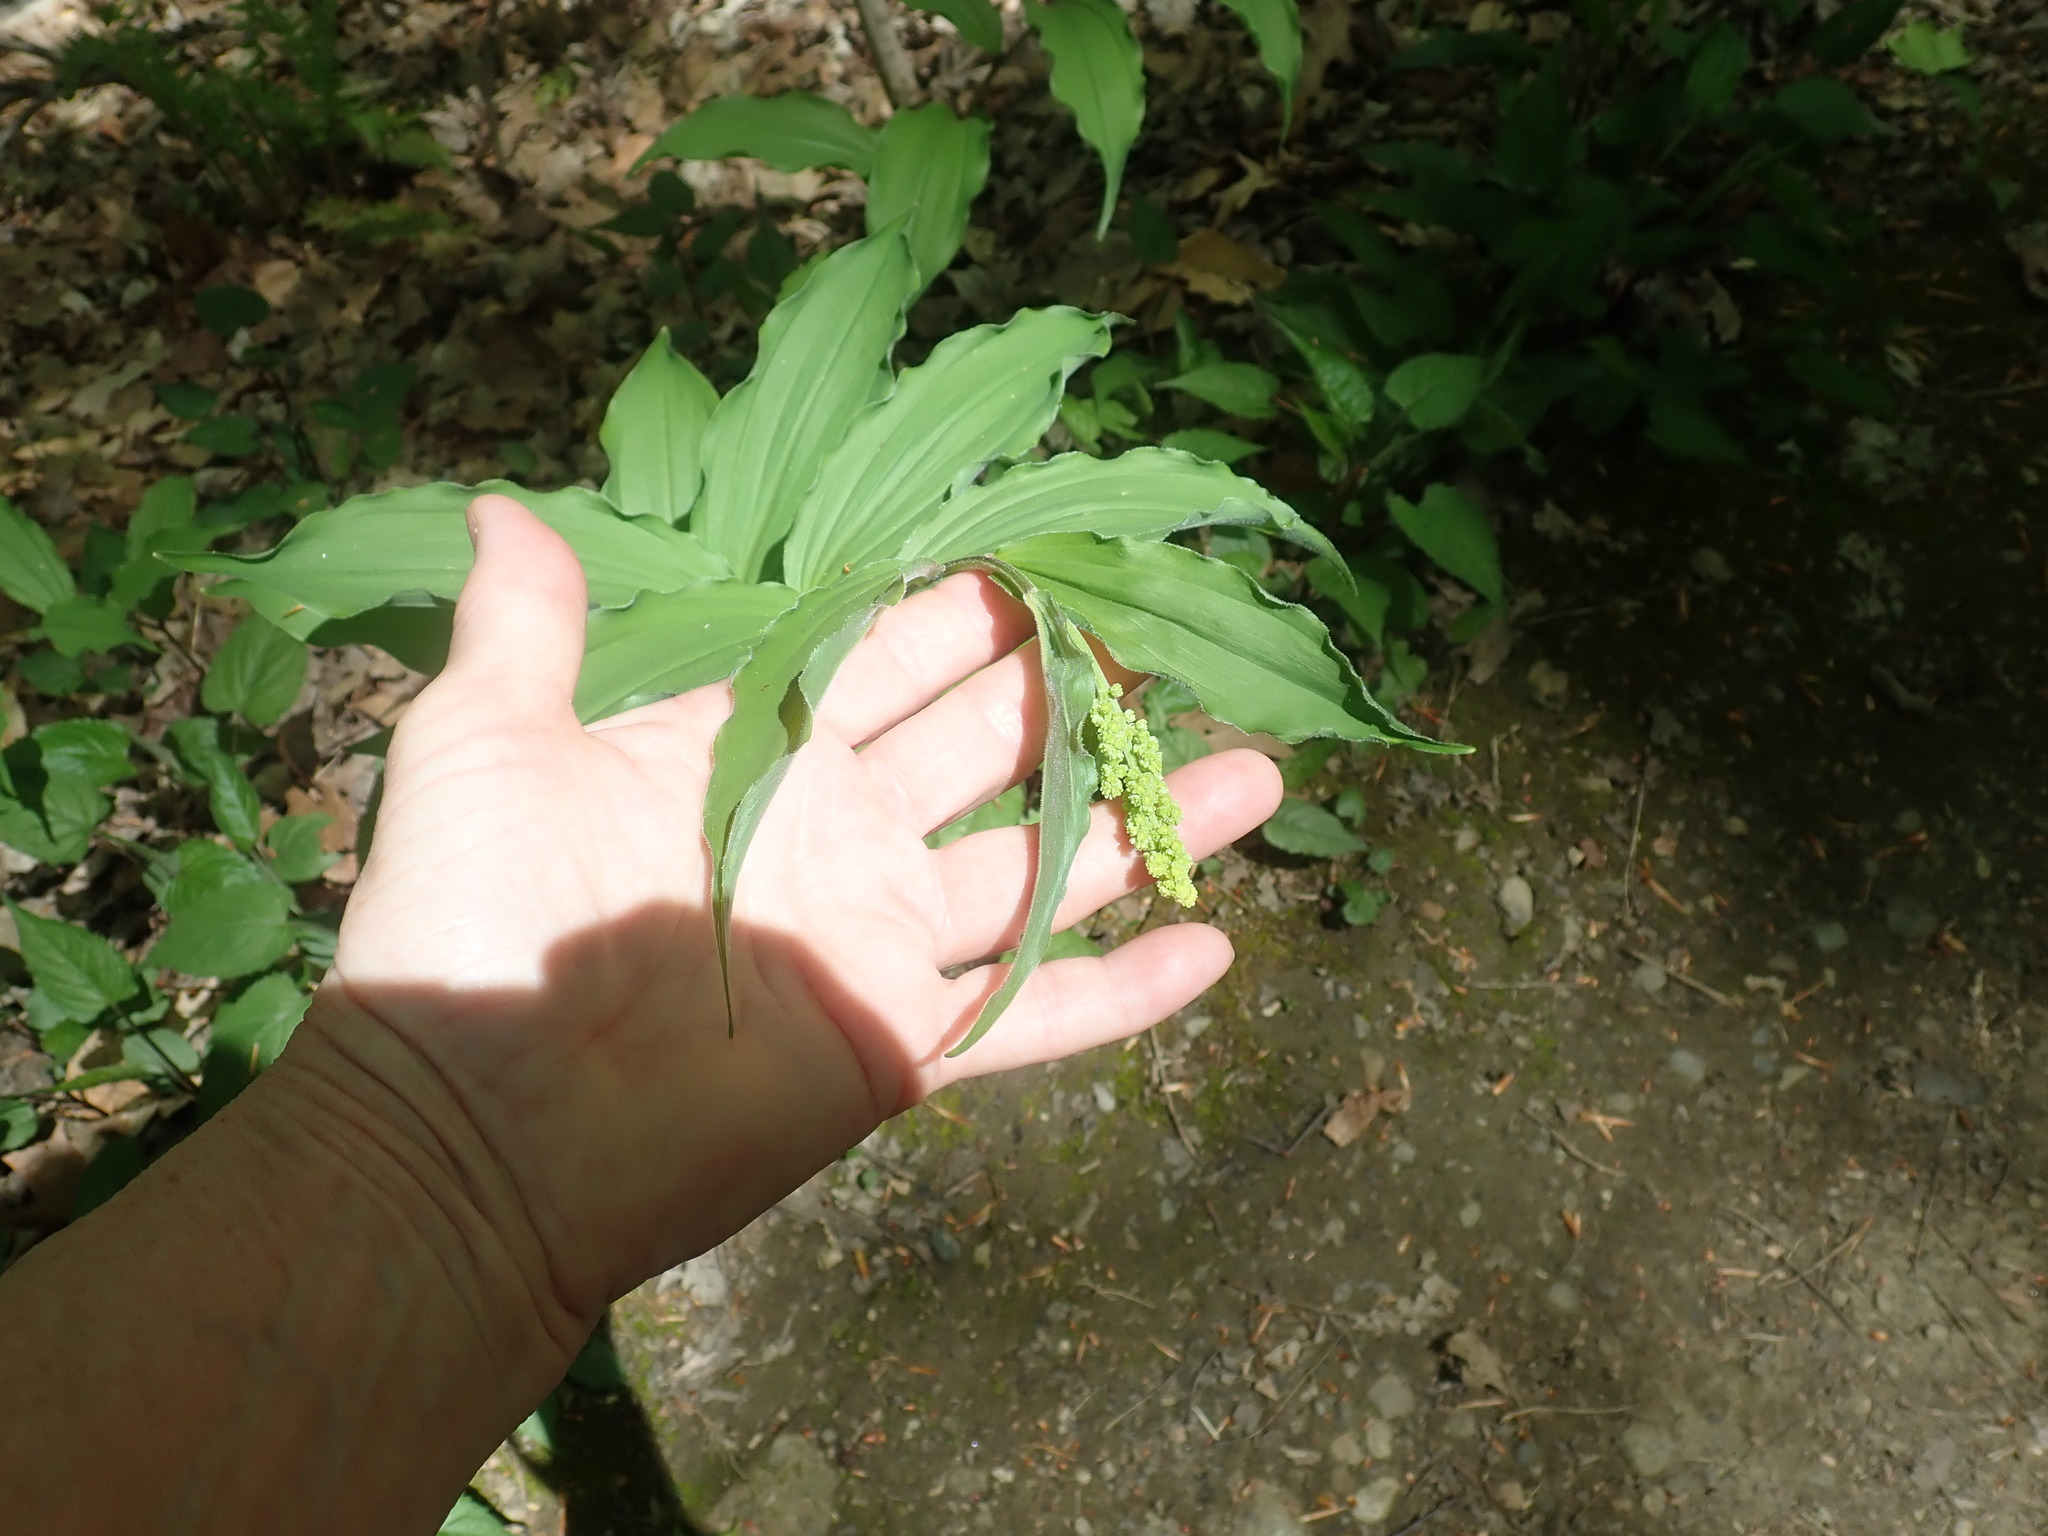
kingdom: Plantae
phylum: Tracheophyta
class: Liliopsida
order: Asparagales
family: Asparagaceae
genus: Maianthemum
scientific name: Maianthemum racemosum
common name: False spikenard
